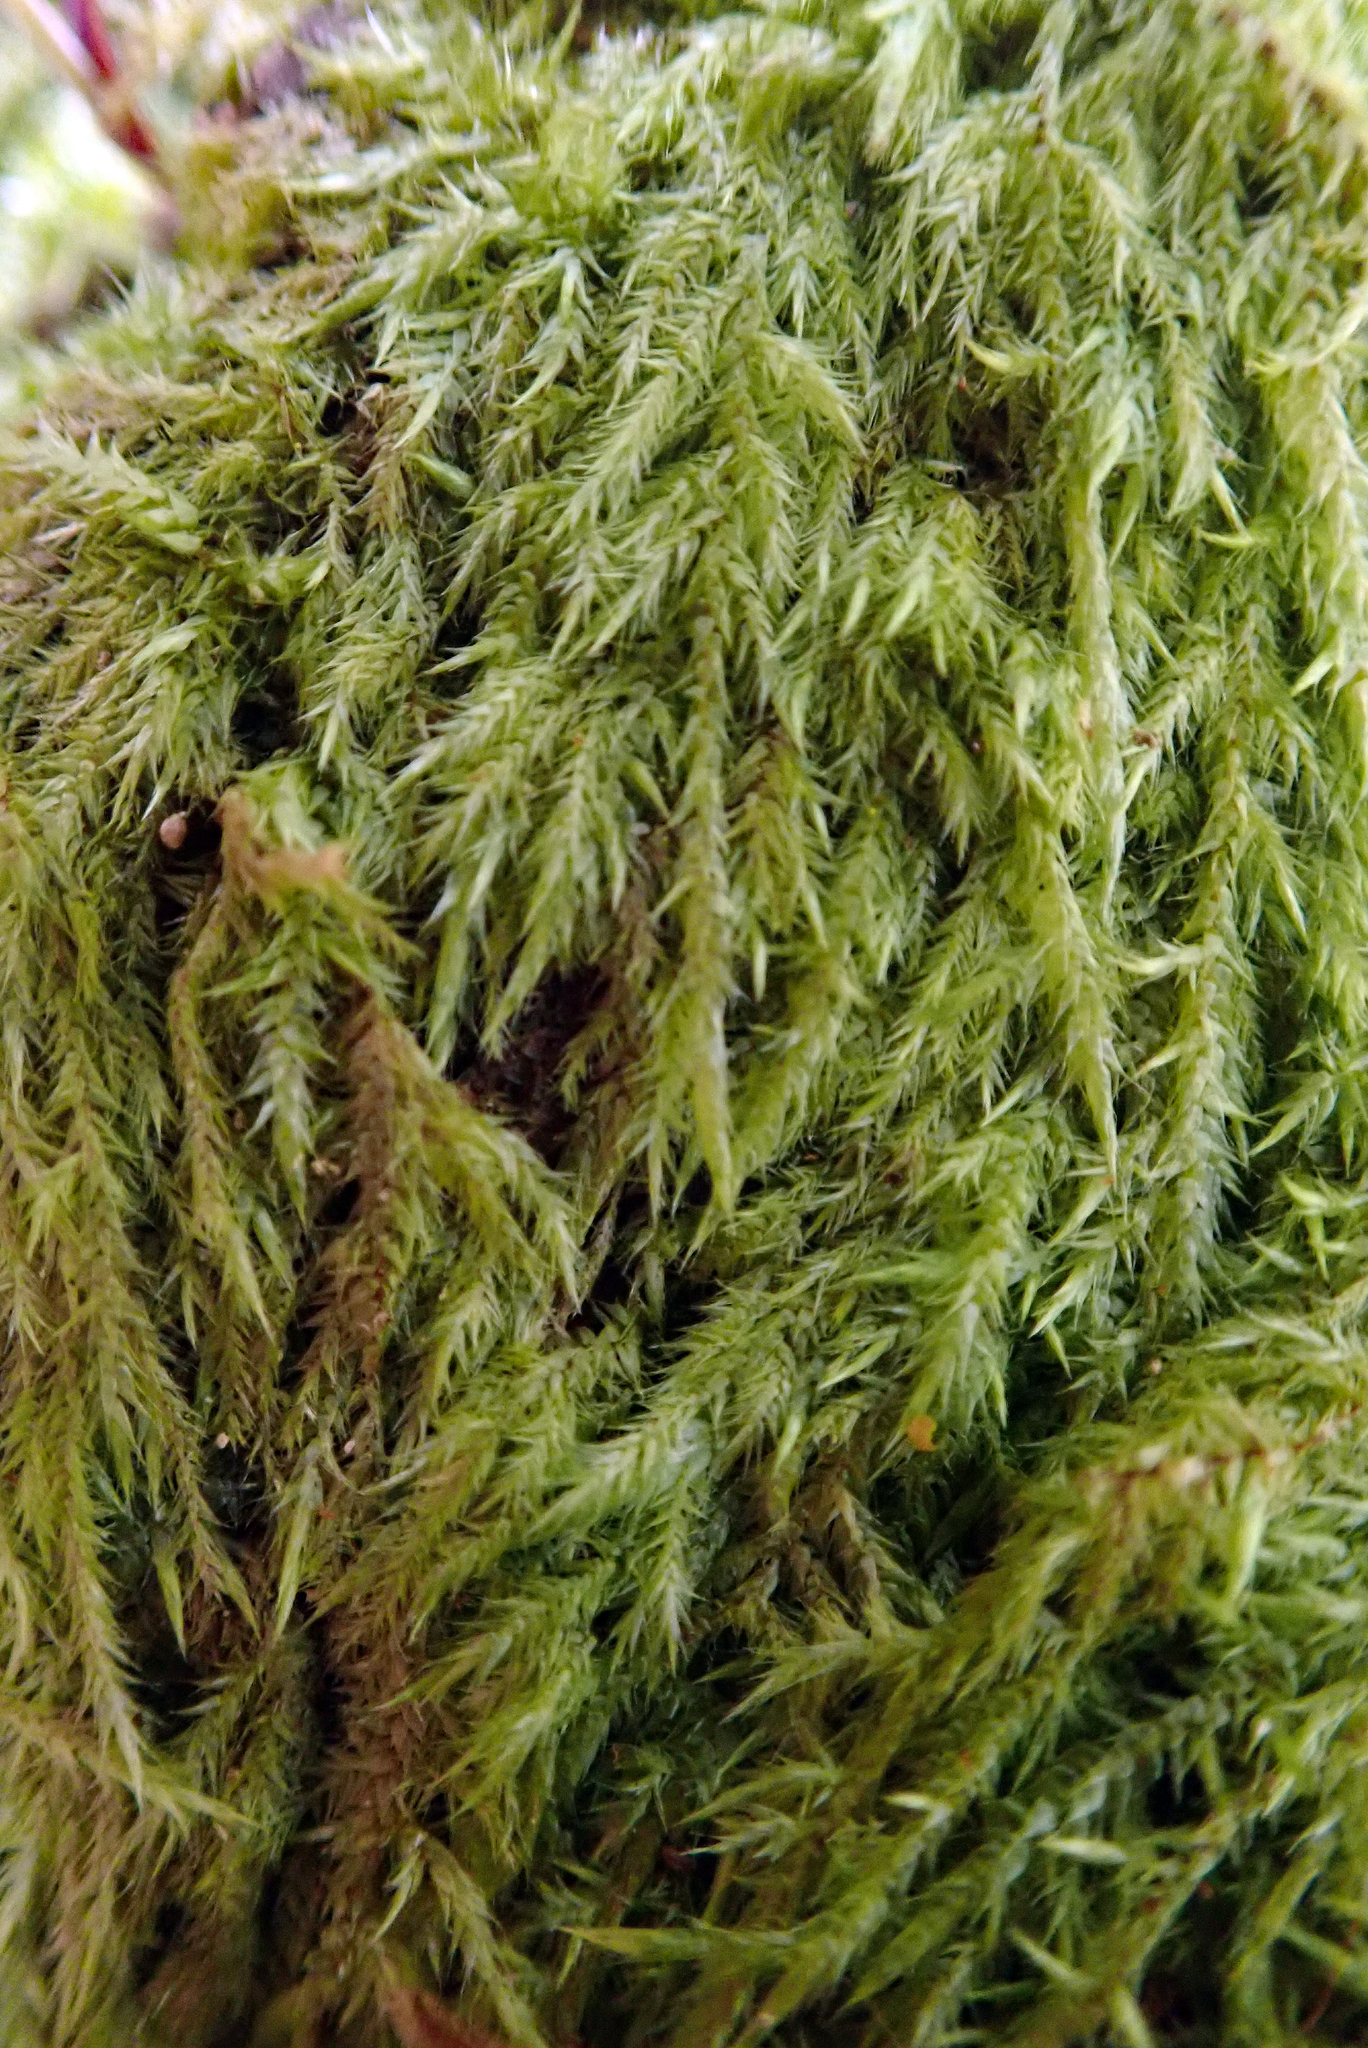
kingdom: Plantae
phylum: Bryophyta
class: Bryopsida
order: Hypnales
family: Pylaisiadelphaceae
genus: Wijkia
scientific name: Wijkia extenuata
